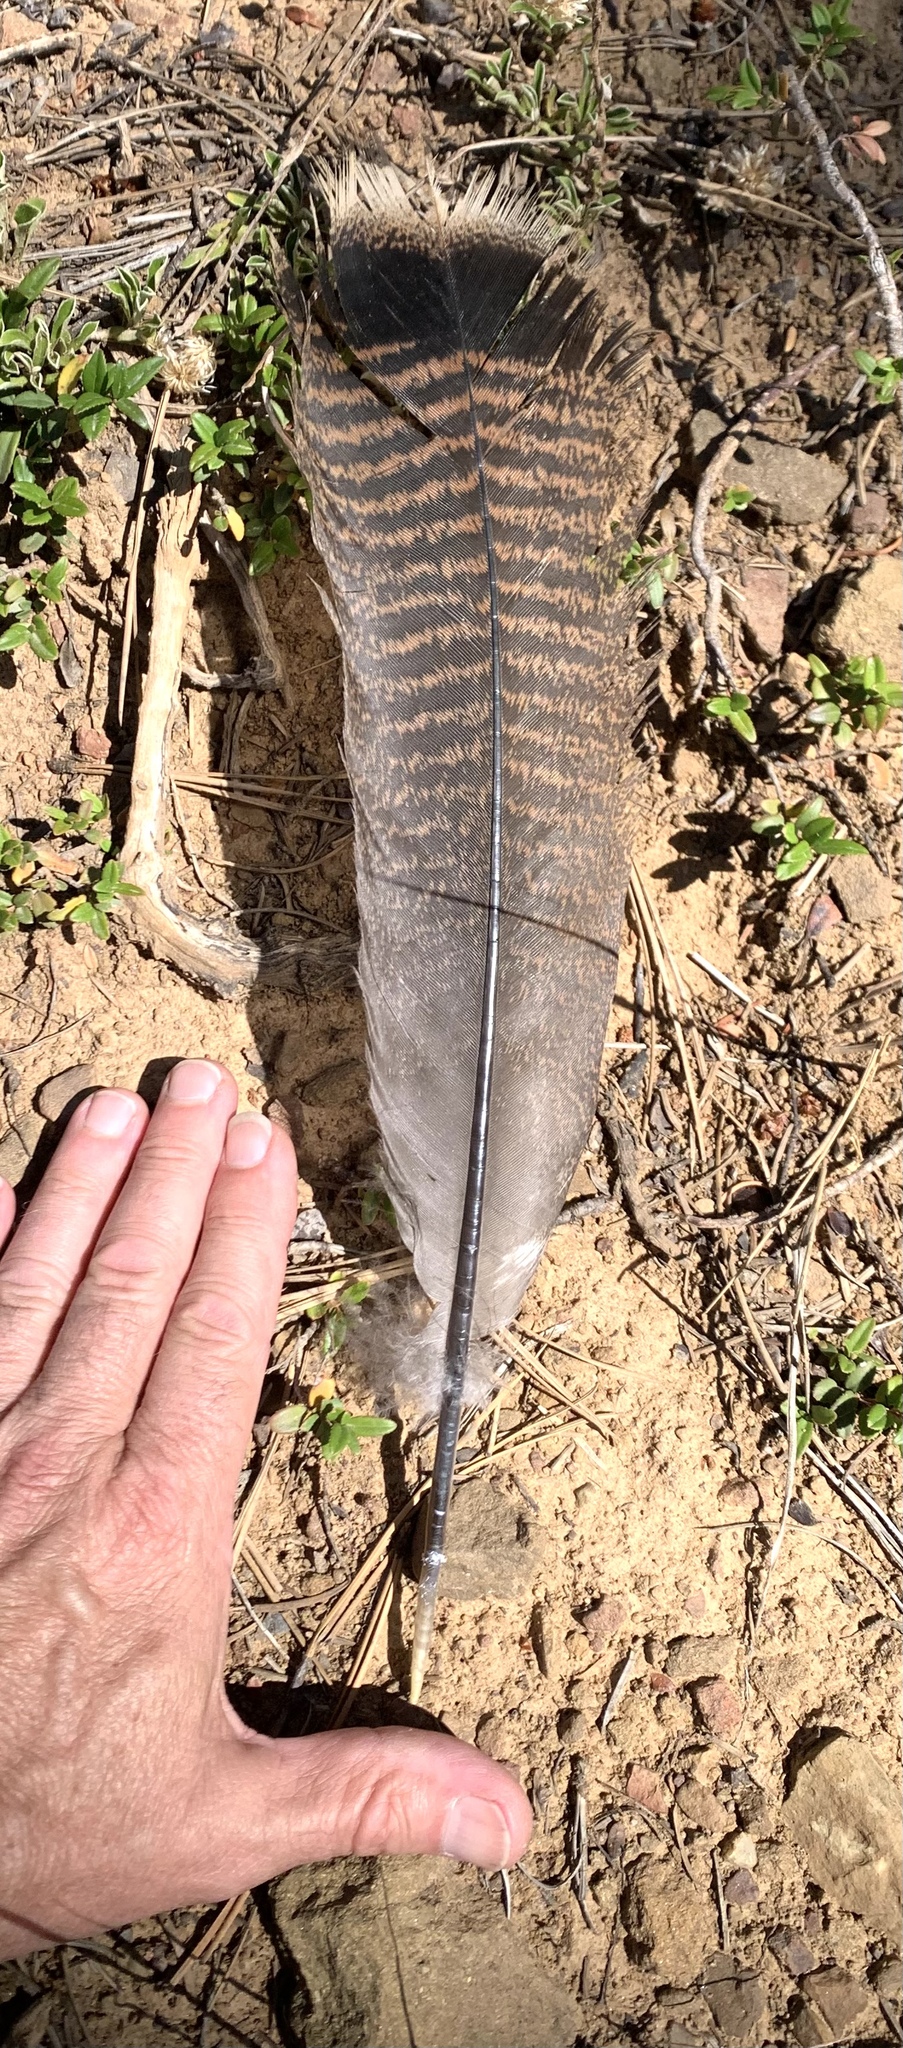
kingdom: Animalia
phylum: Chordata
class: Aves
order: Galliformes
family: Phasianidae
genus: Meleagris
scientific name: Meleagris gallopavo
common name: Wild turkey
